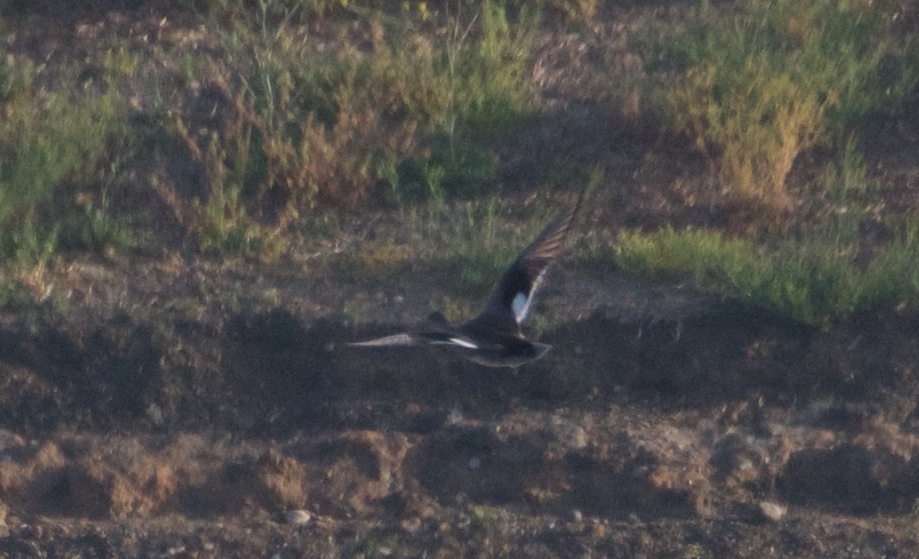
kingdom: Animalia
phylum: Chordata
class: Aves
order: Anseriformes
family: Anatidae
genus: Mareca
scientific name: Mareca strepera
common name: Gadwall
